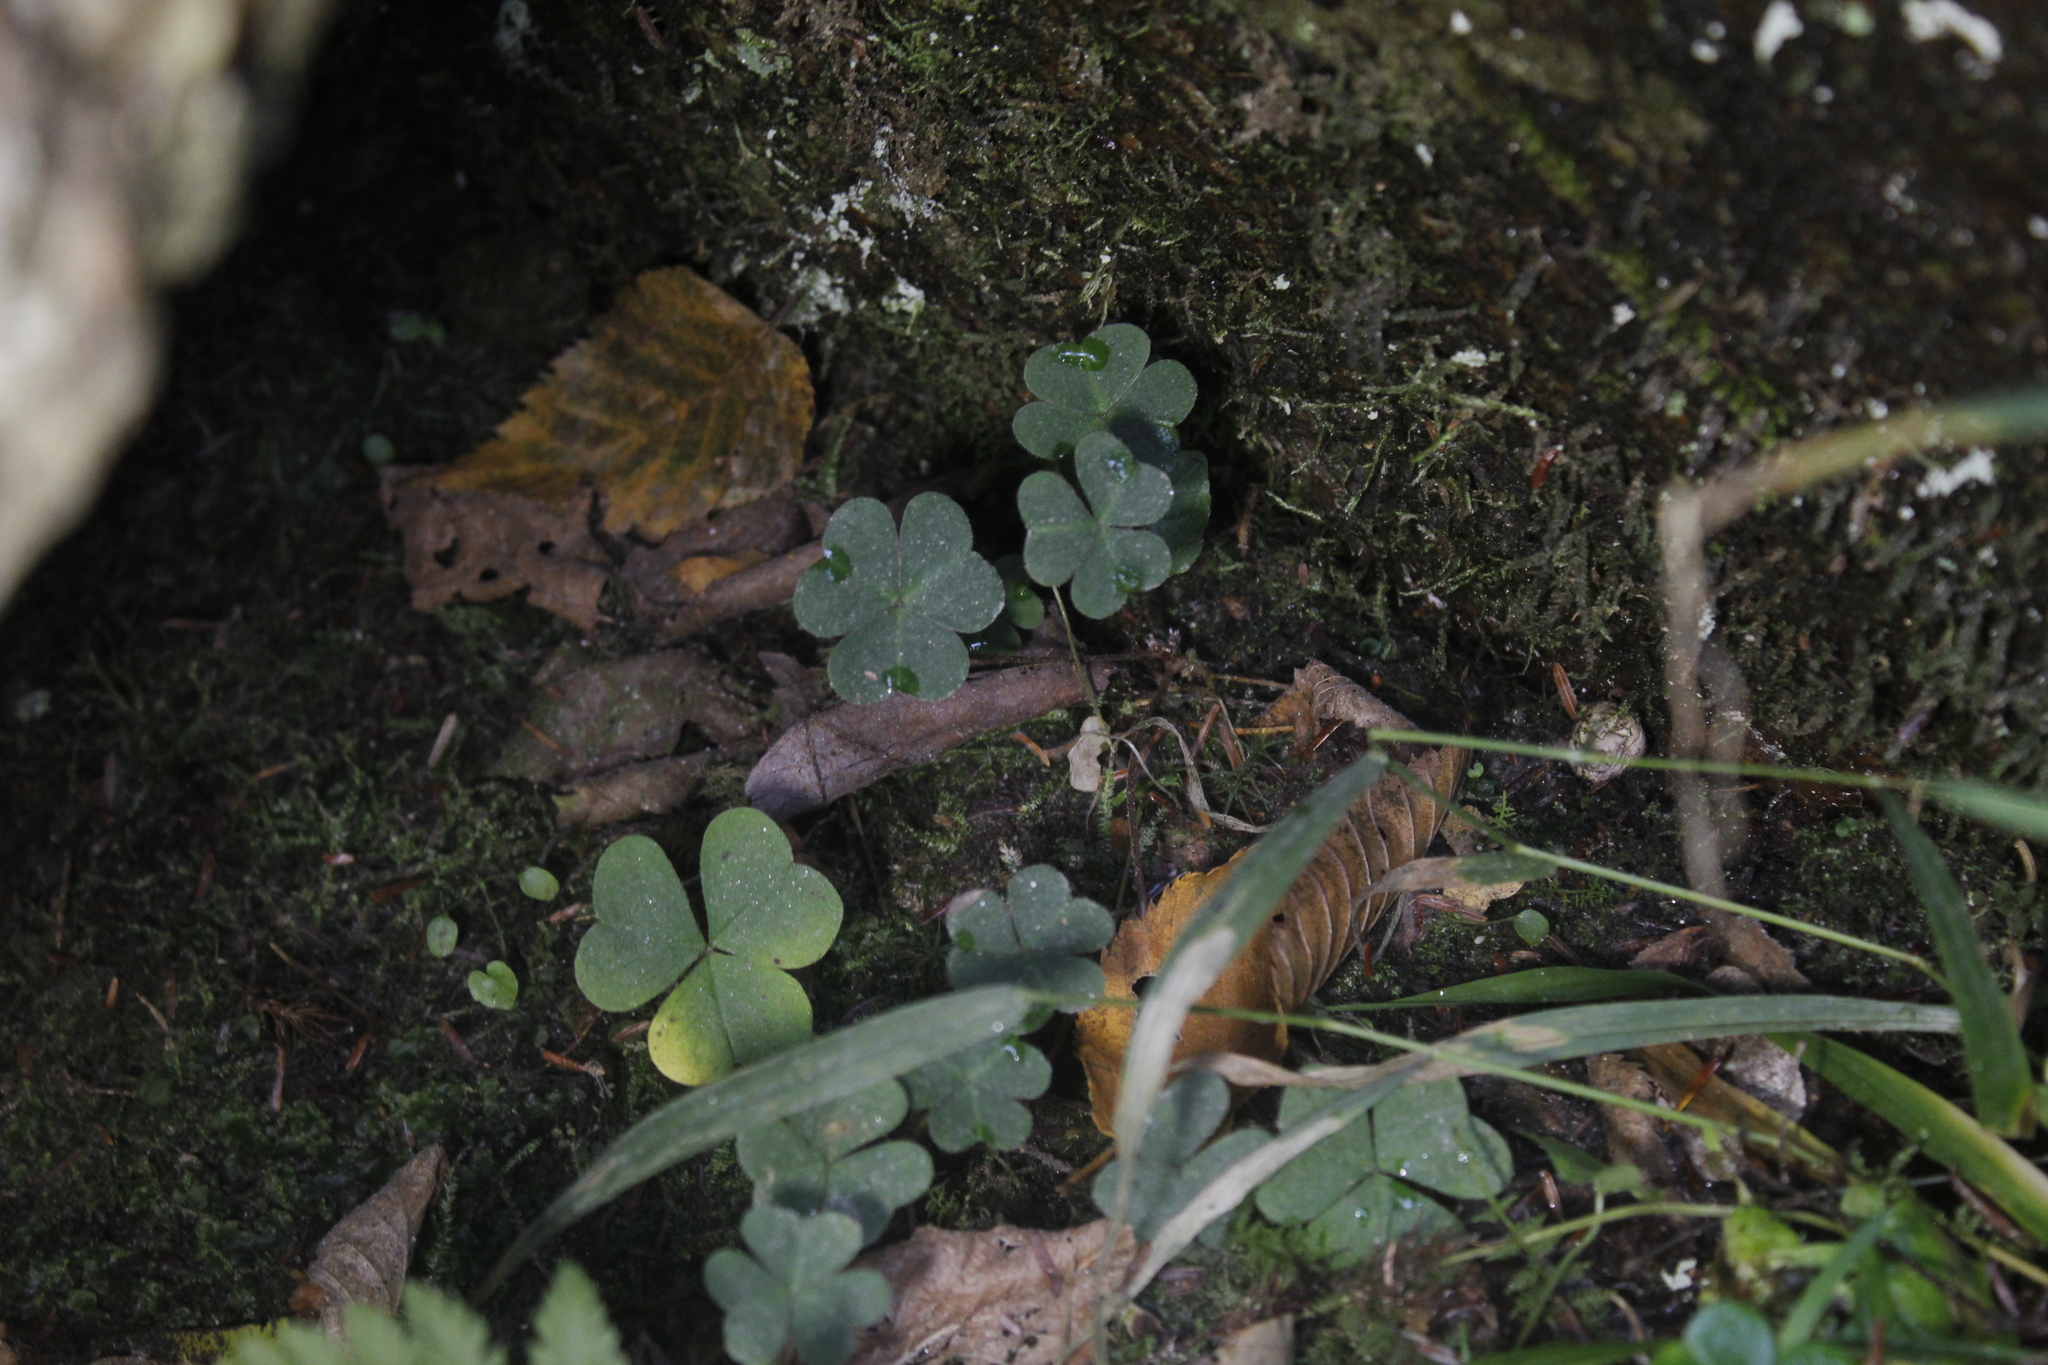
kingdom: Plantae
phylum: Tracheophyta
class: Magnoliopsida
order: Oxalidales
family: Oxalidaceae
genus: Oxalis
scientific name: Oxalis montana
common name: American wood-sorrel
